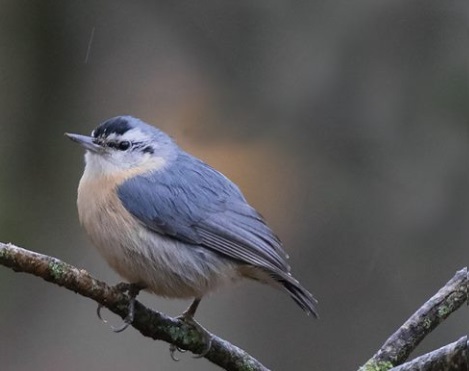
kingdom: Animalia
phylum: Chordata
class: Aves
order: Passeriformes
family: Sittidae
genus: Sitta
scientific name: Sitta ledanti
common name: Algerian nuthatch
